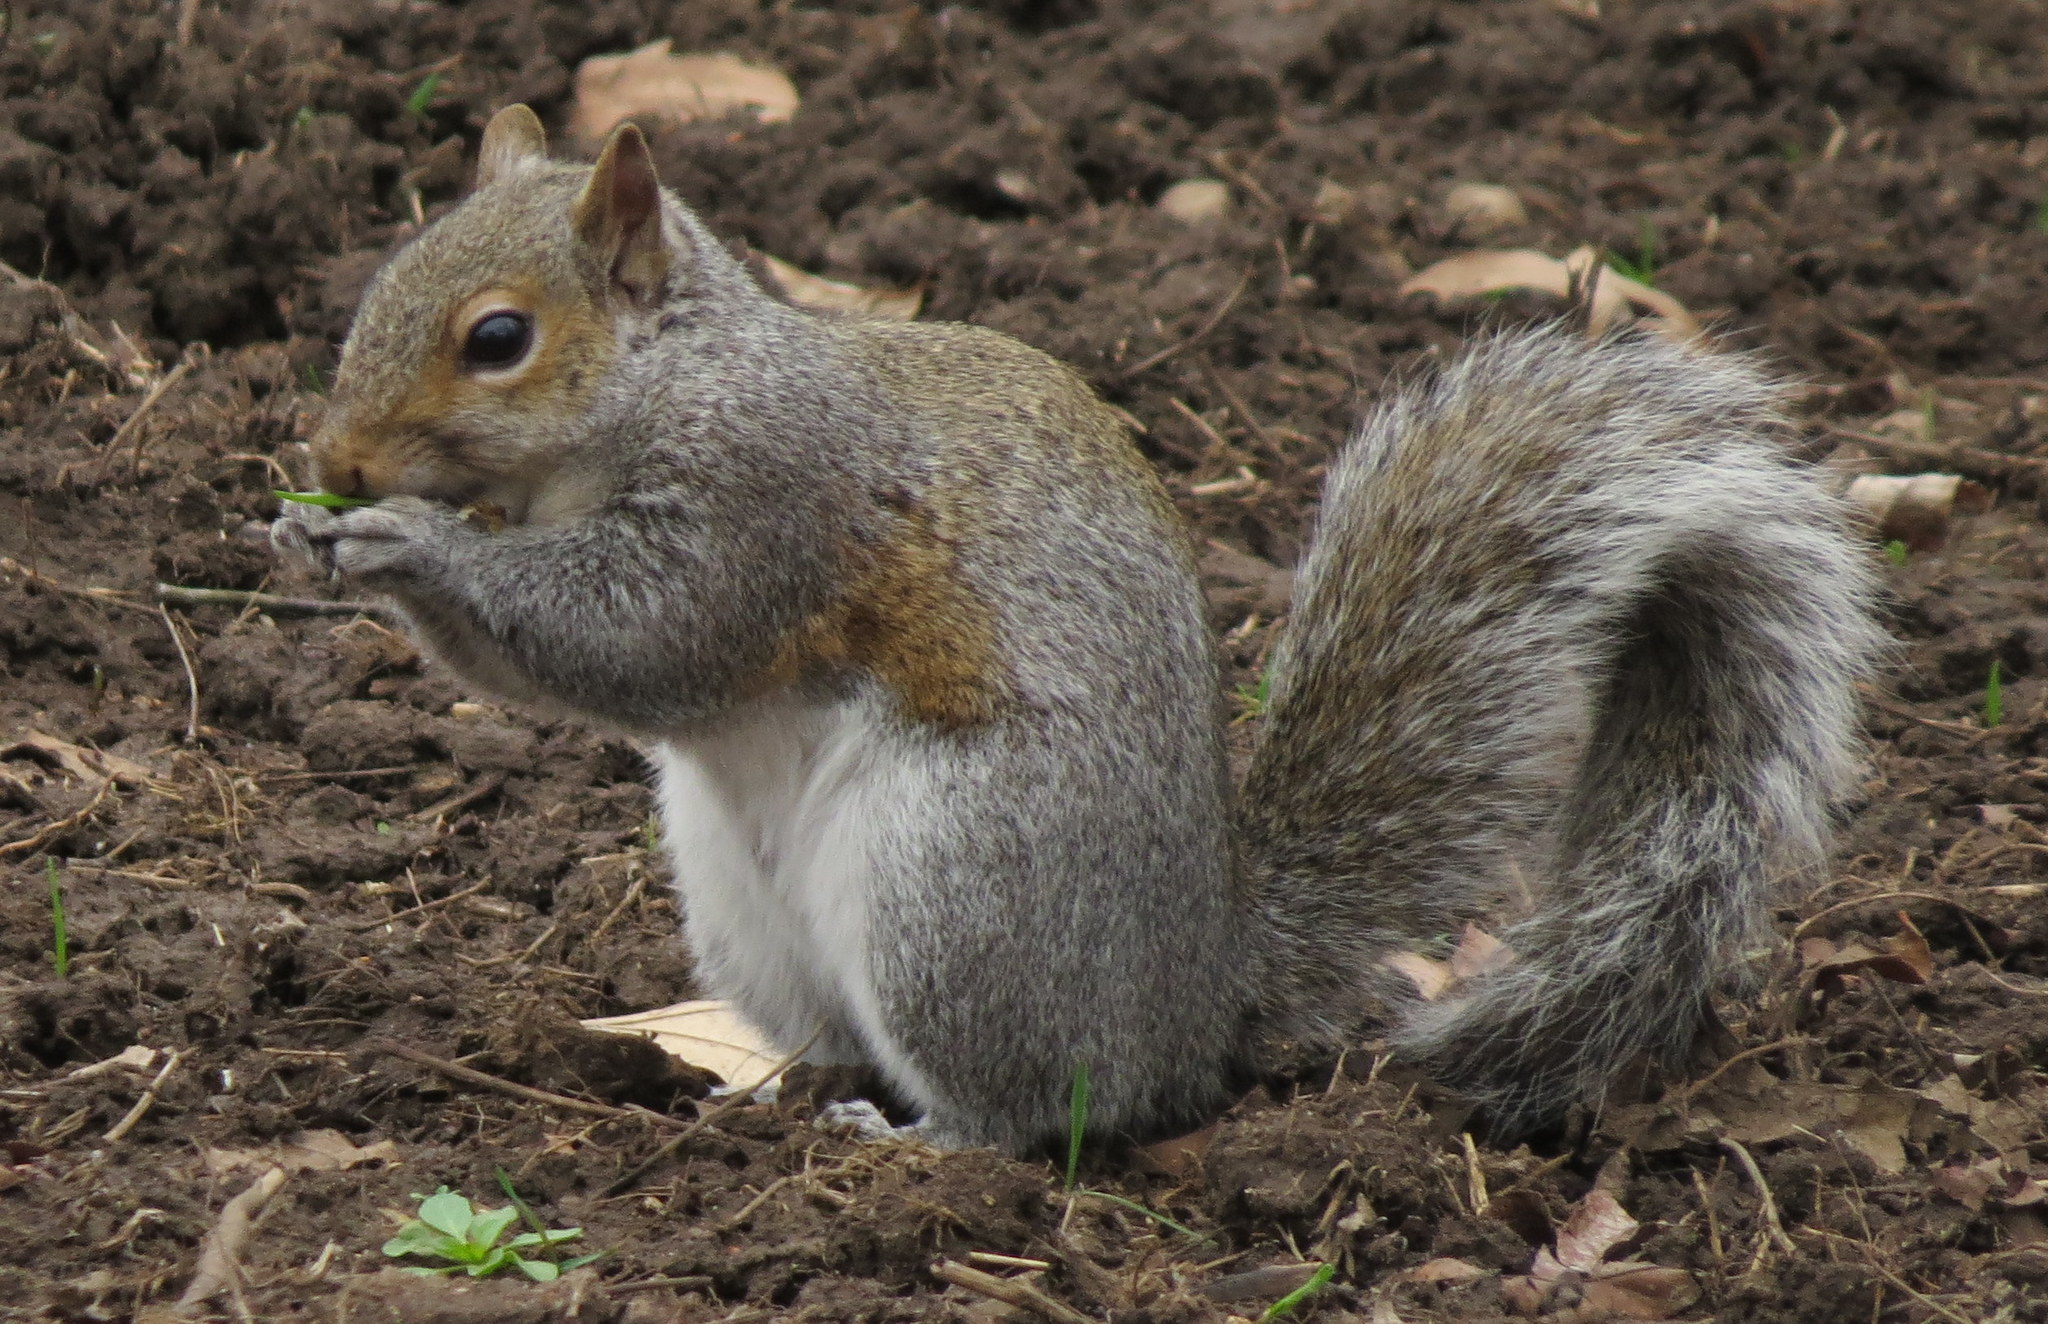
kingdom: Animalia
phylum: Chordata
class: Mammalia
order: Rodentia
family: Sciuridae
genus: Sciurus
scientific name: Sciurus carolinensis
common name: Eastern gray squirrel
